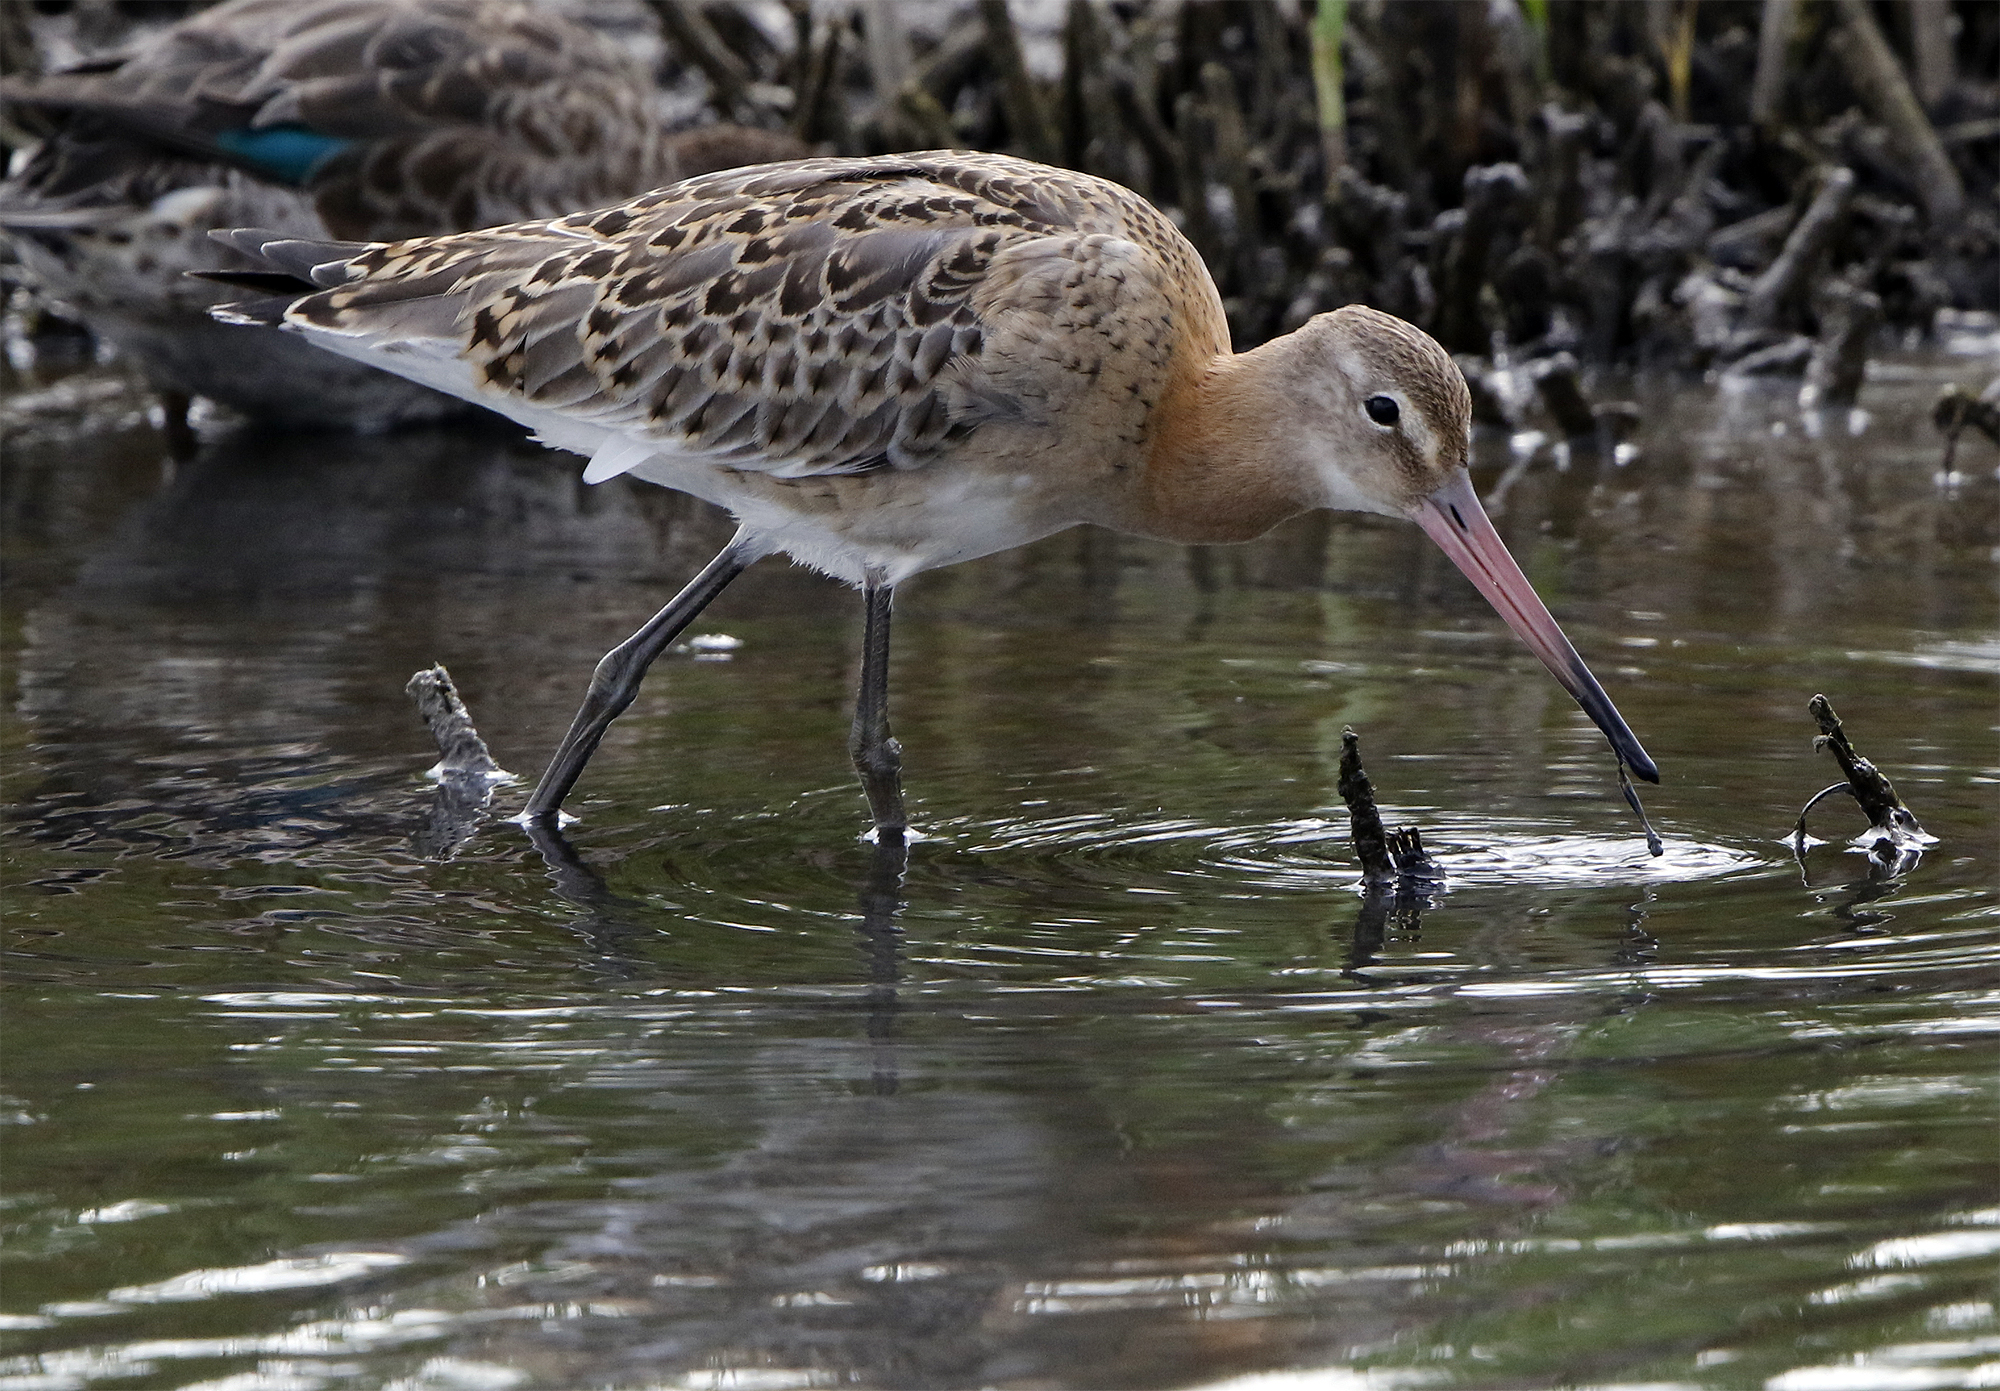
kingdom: Animalia
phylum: Chordata
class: Aves
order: Charadriiformes
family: Scolopacidae
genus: Limosa
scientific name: Limosa limosa
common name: Black-tailed godwit
